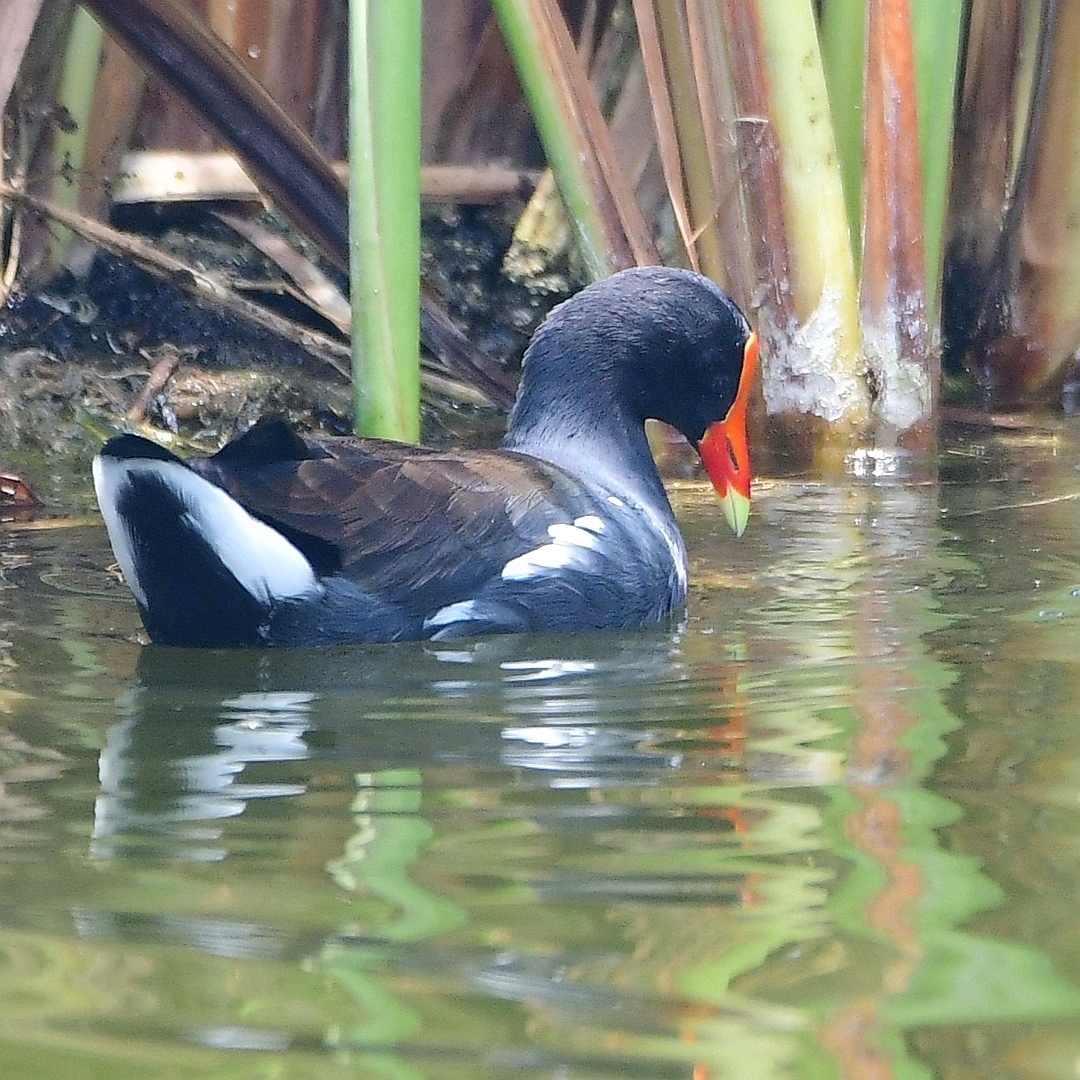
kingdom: Animalia
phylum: Chordata
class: Aves
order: Gruiformes
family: Rallidae
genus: Gallinula
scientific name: Gallinula chloropus
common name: Common moorhen
